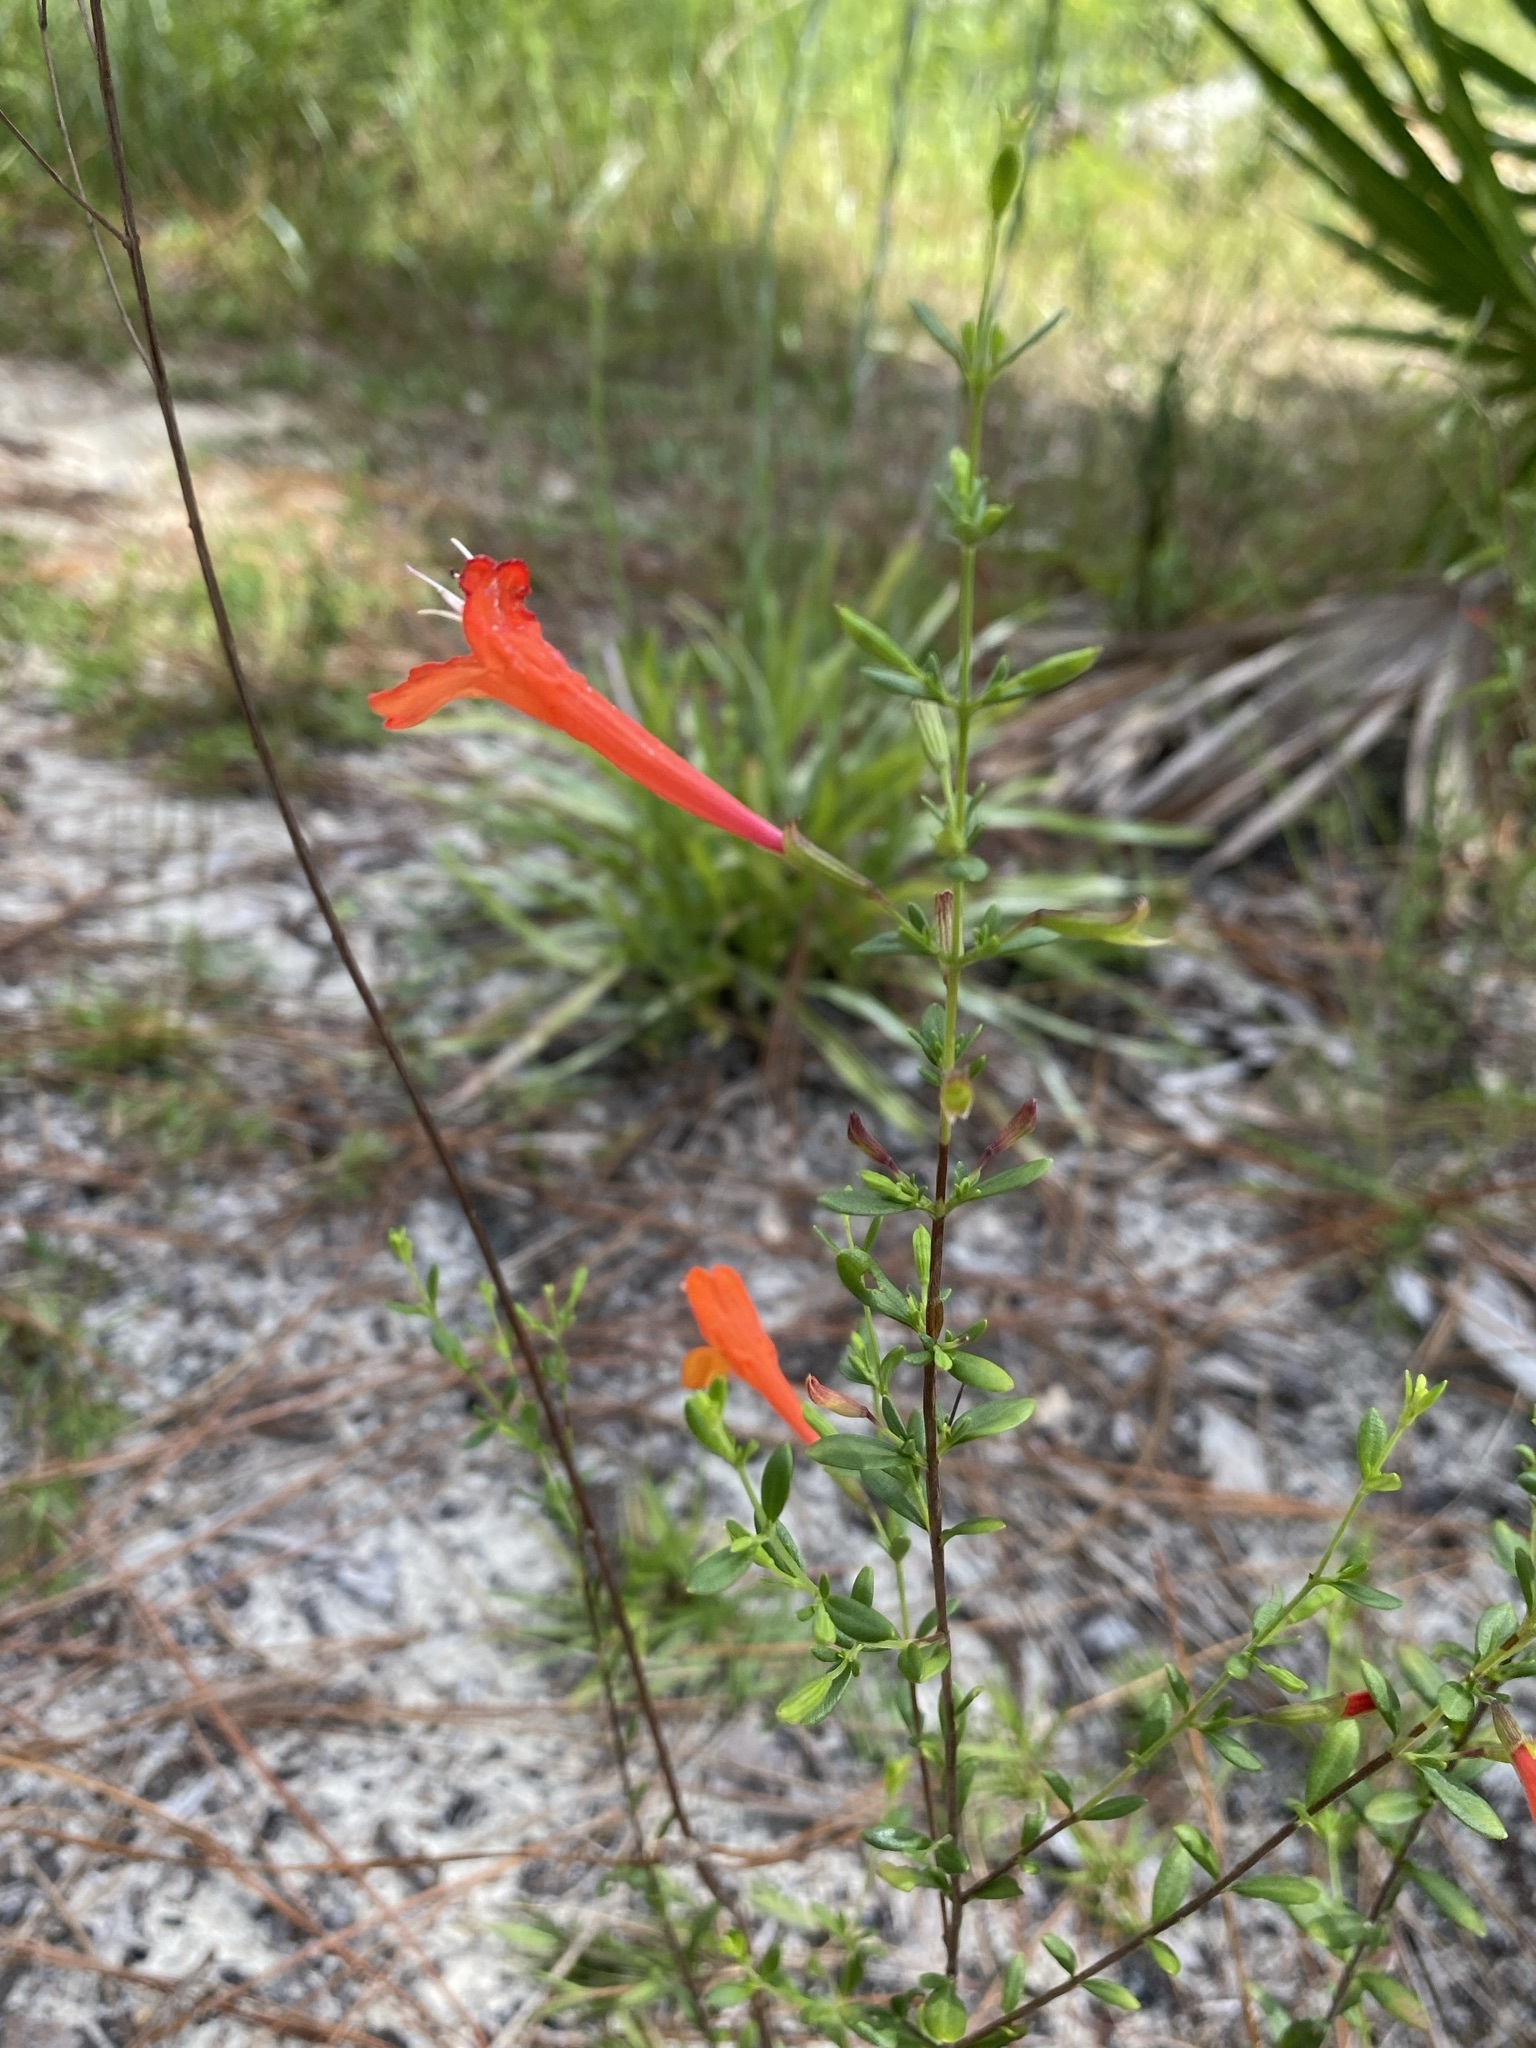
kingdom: Plantae
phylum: Tracheophyta
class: Magnoliopsida
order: Lamiales
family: Lamiaceae
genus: Clinopodium
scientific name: Clinopodium coccineum
